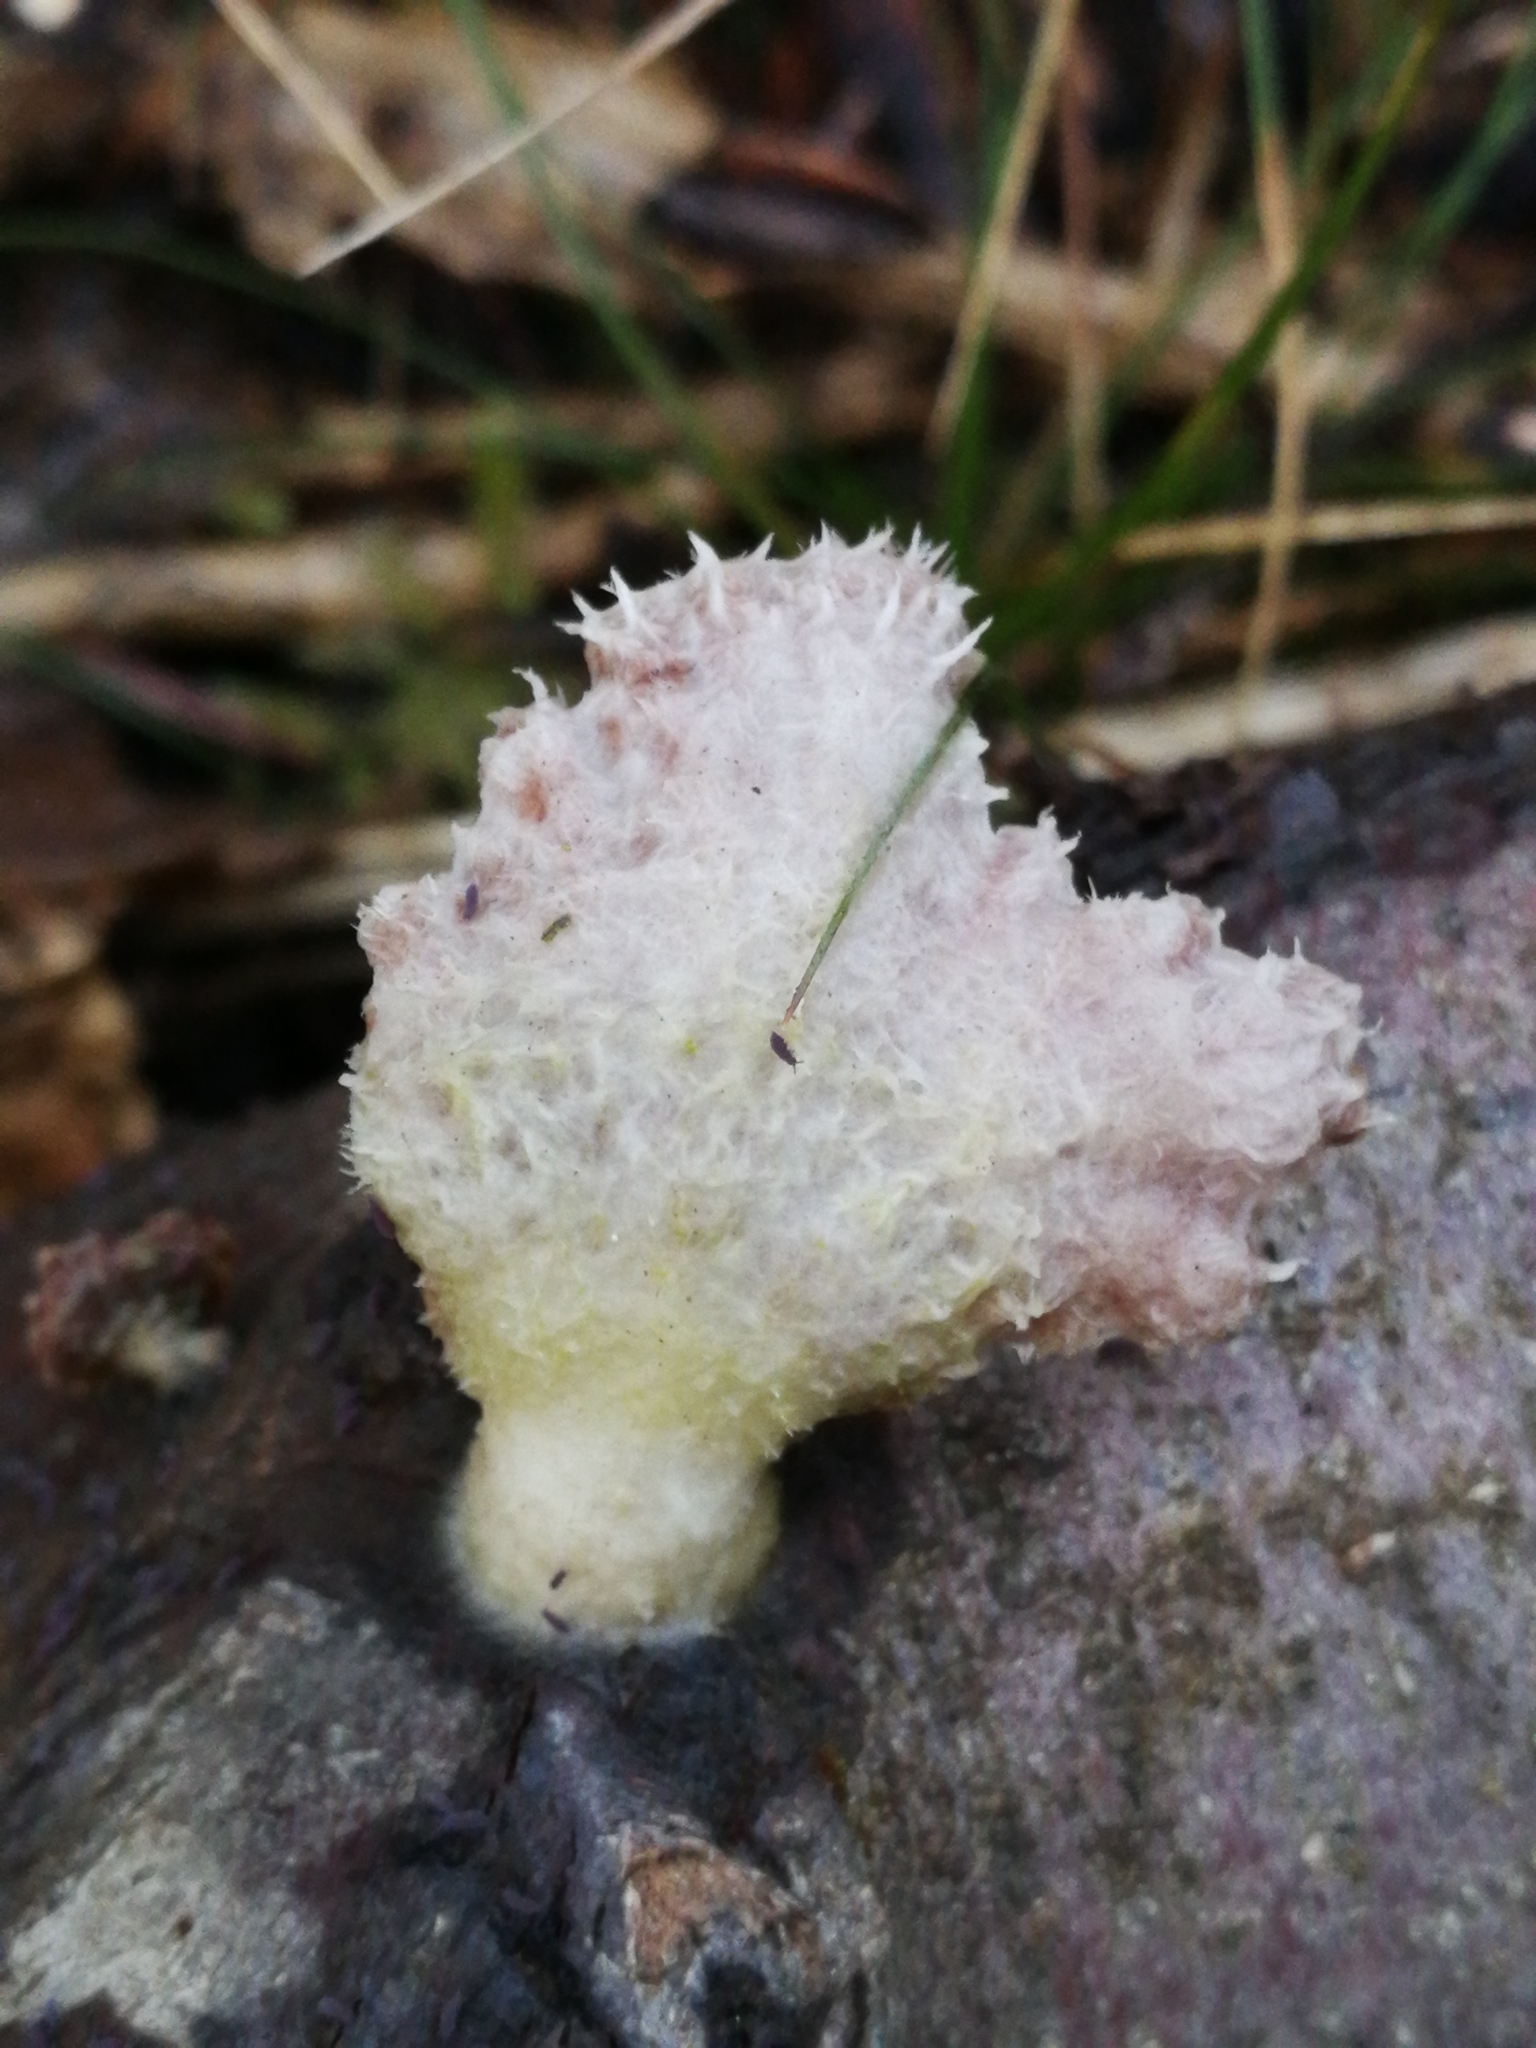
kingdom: Fungi
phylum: Basidiomycota
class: Agaricomycetes
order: Agaricales
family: Schizophyllaceae
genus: Schizophyllum
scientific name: Schizophyllum commune
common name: Common porecrust
